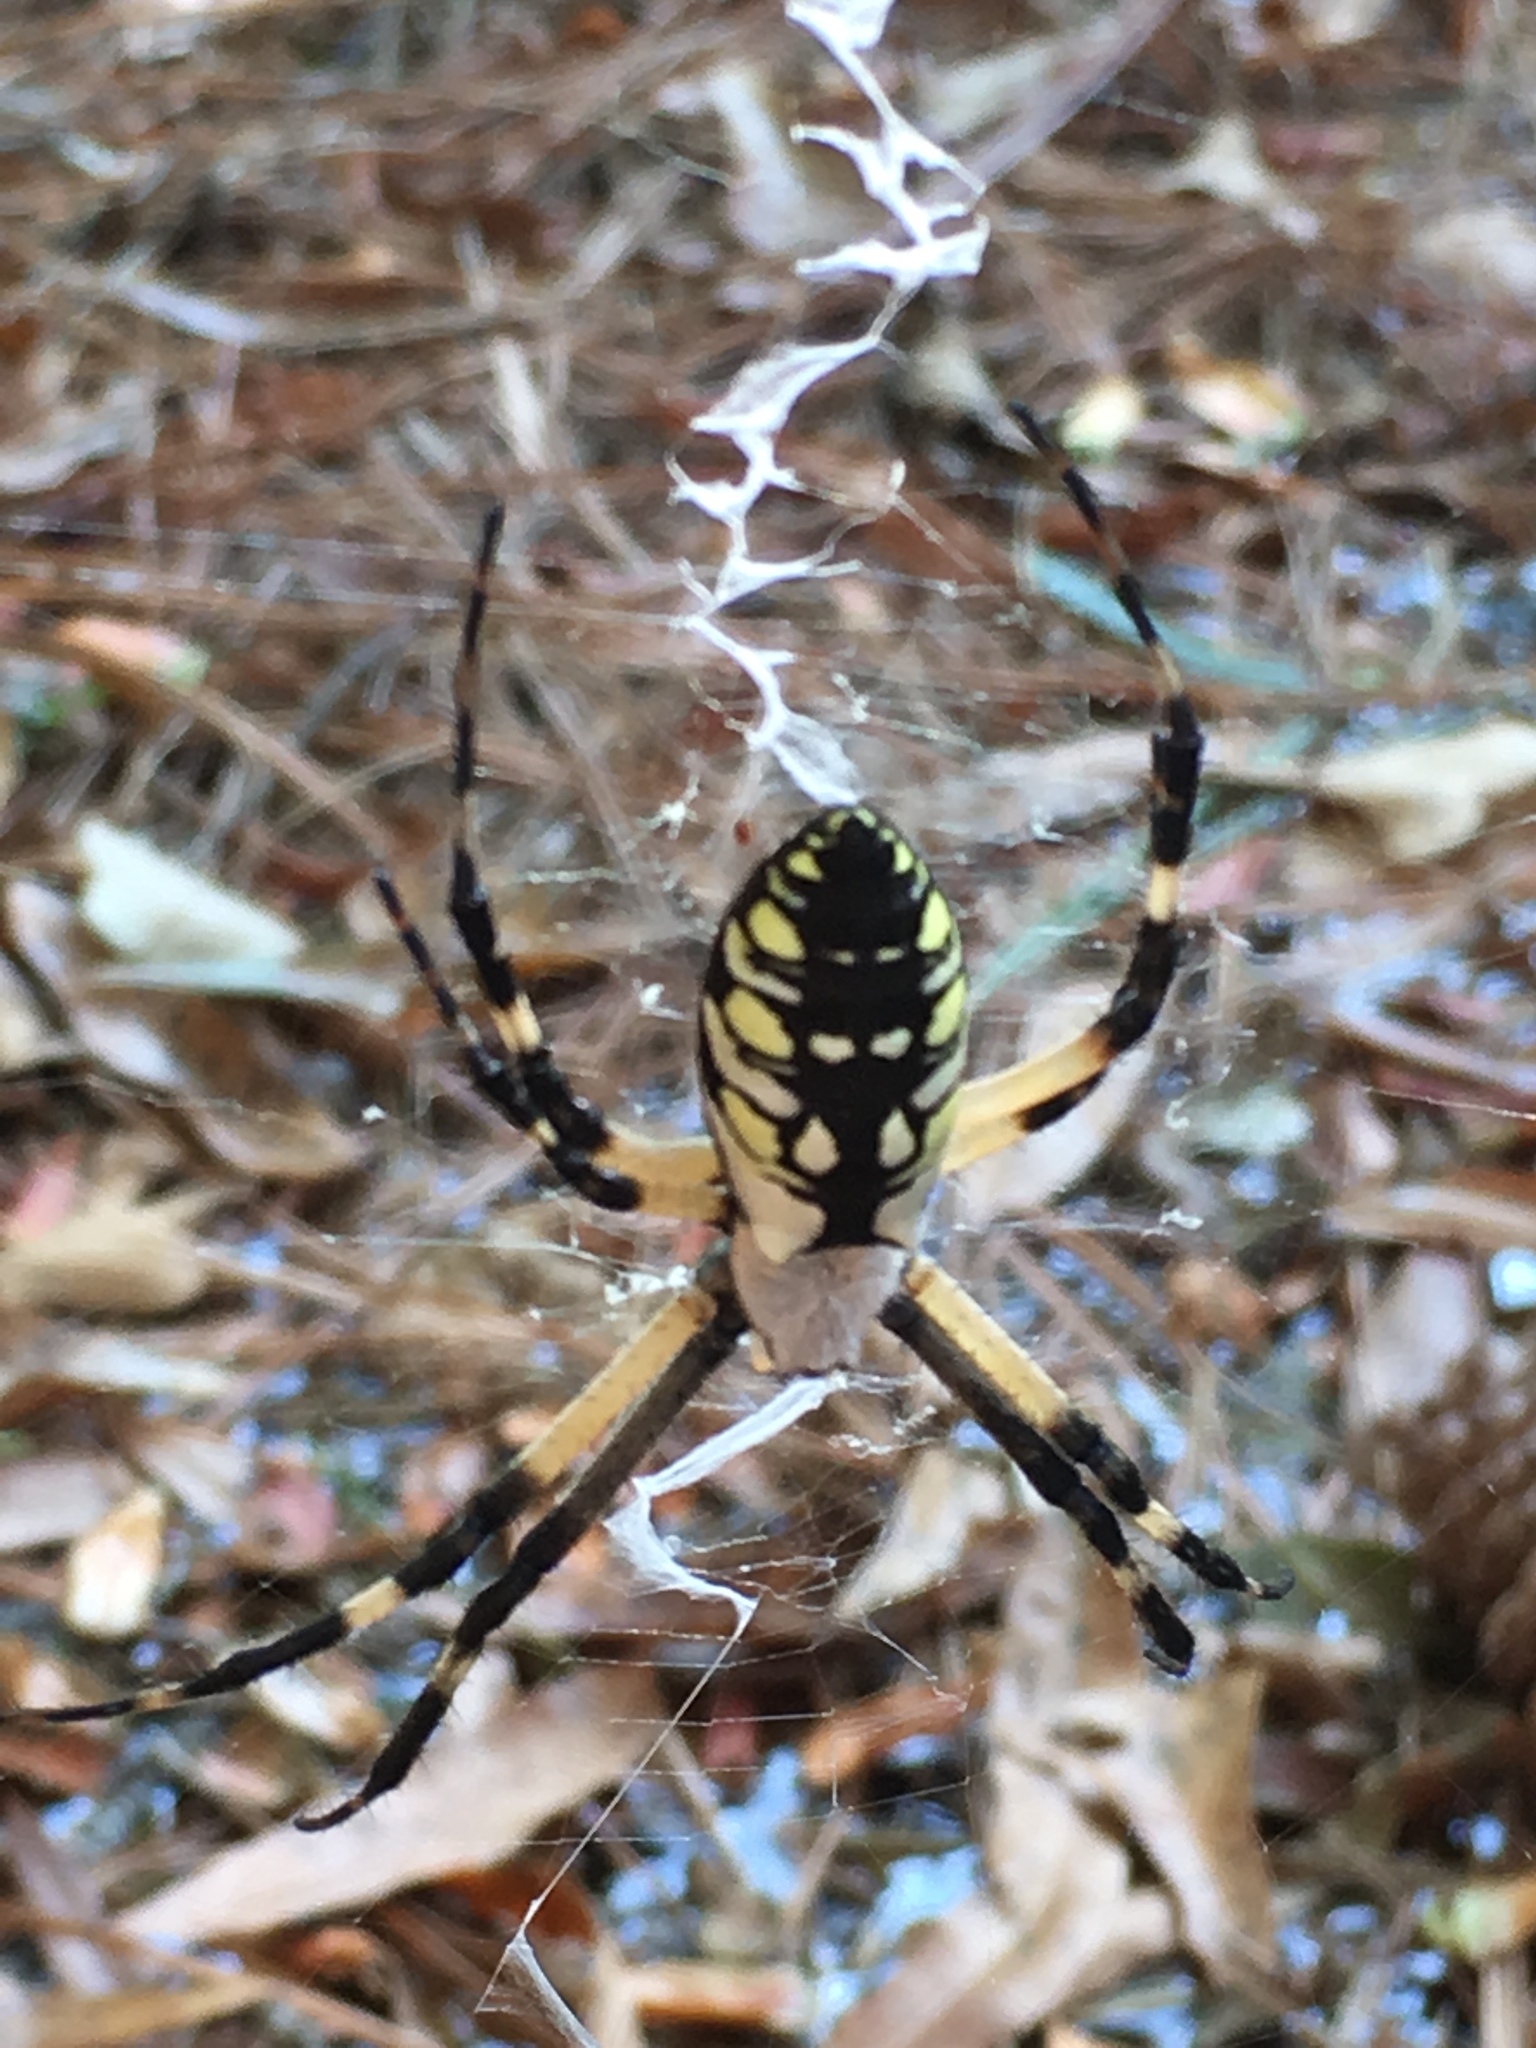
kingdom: Animalia
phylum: Arthropoda
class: Arachnida
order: Araneae
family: Araneidae
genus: Argiope
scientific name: Argiope aurantia
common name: Orb weavers
